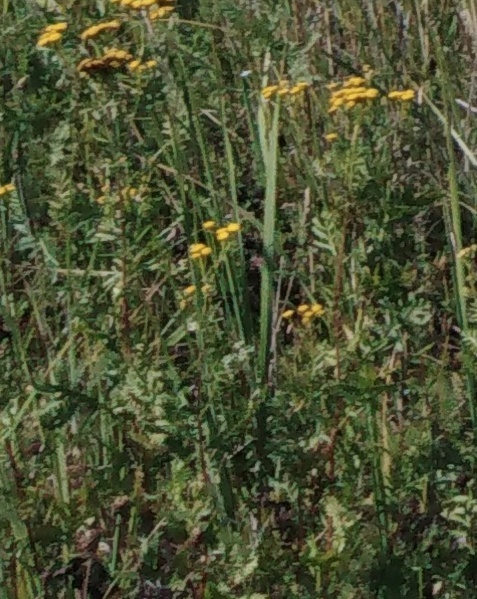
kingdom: Plantae
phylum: Tracheophyta
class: Magnoliopsida
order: Asterales
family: Asteraceae
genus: Tanacetum
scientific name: Tanacetum vulgare
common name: Common tansy
